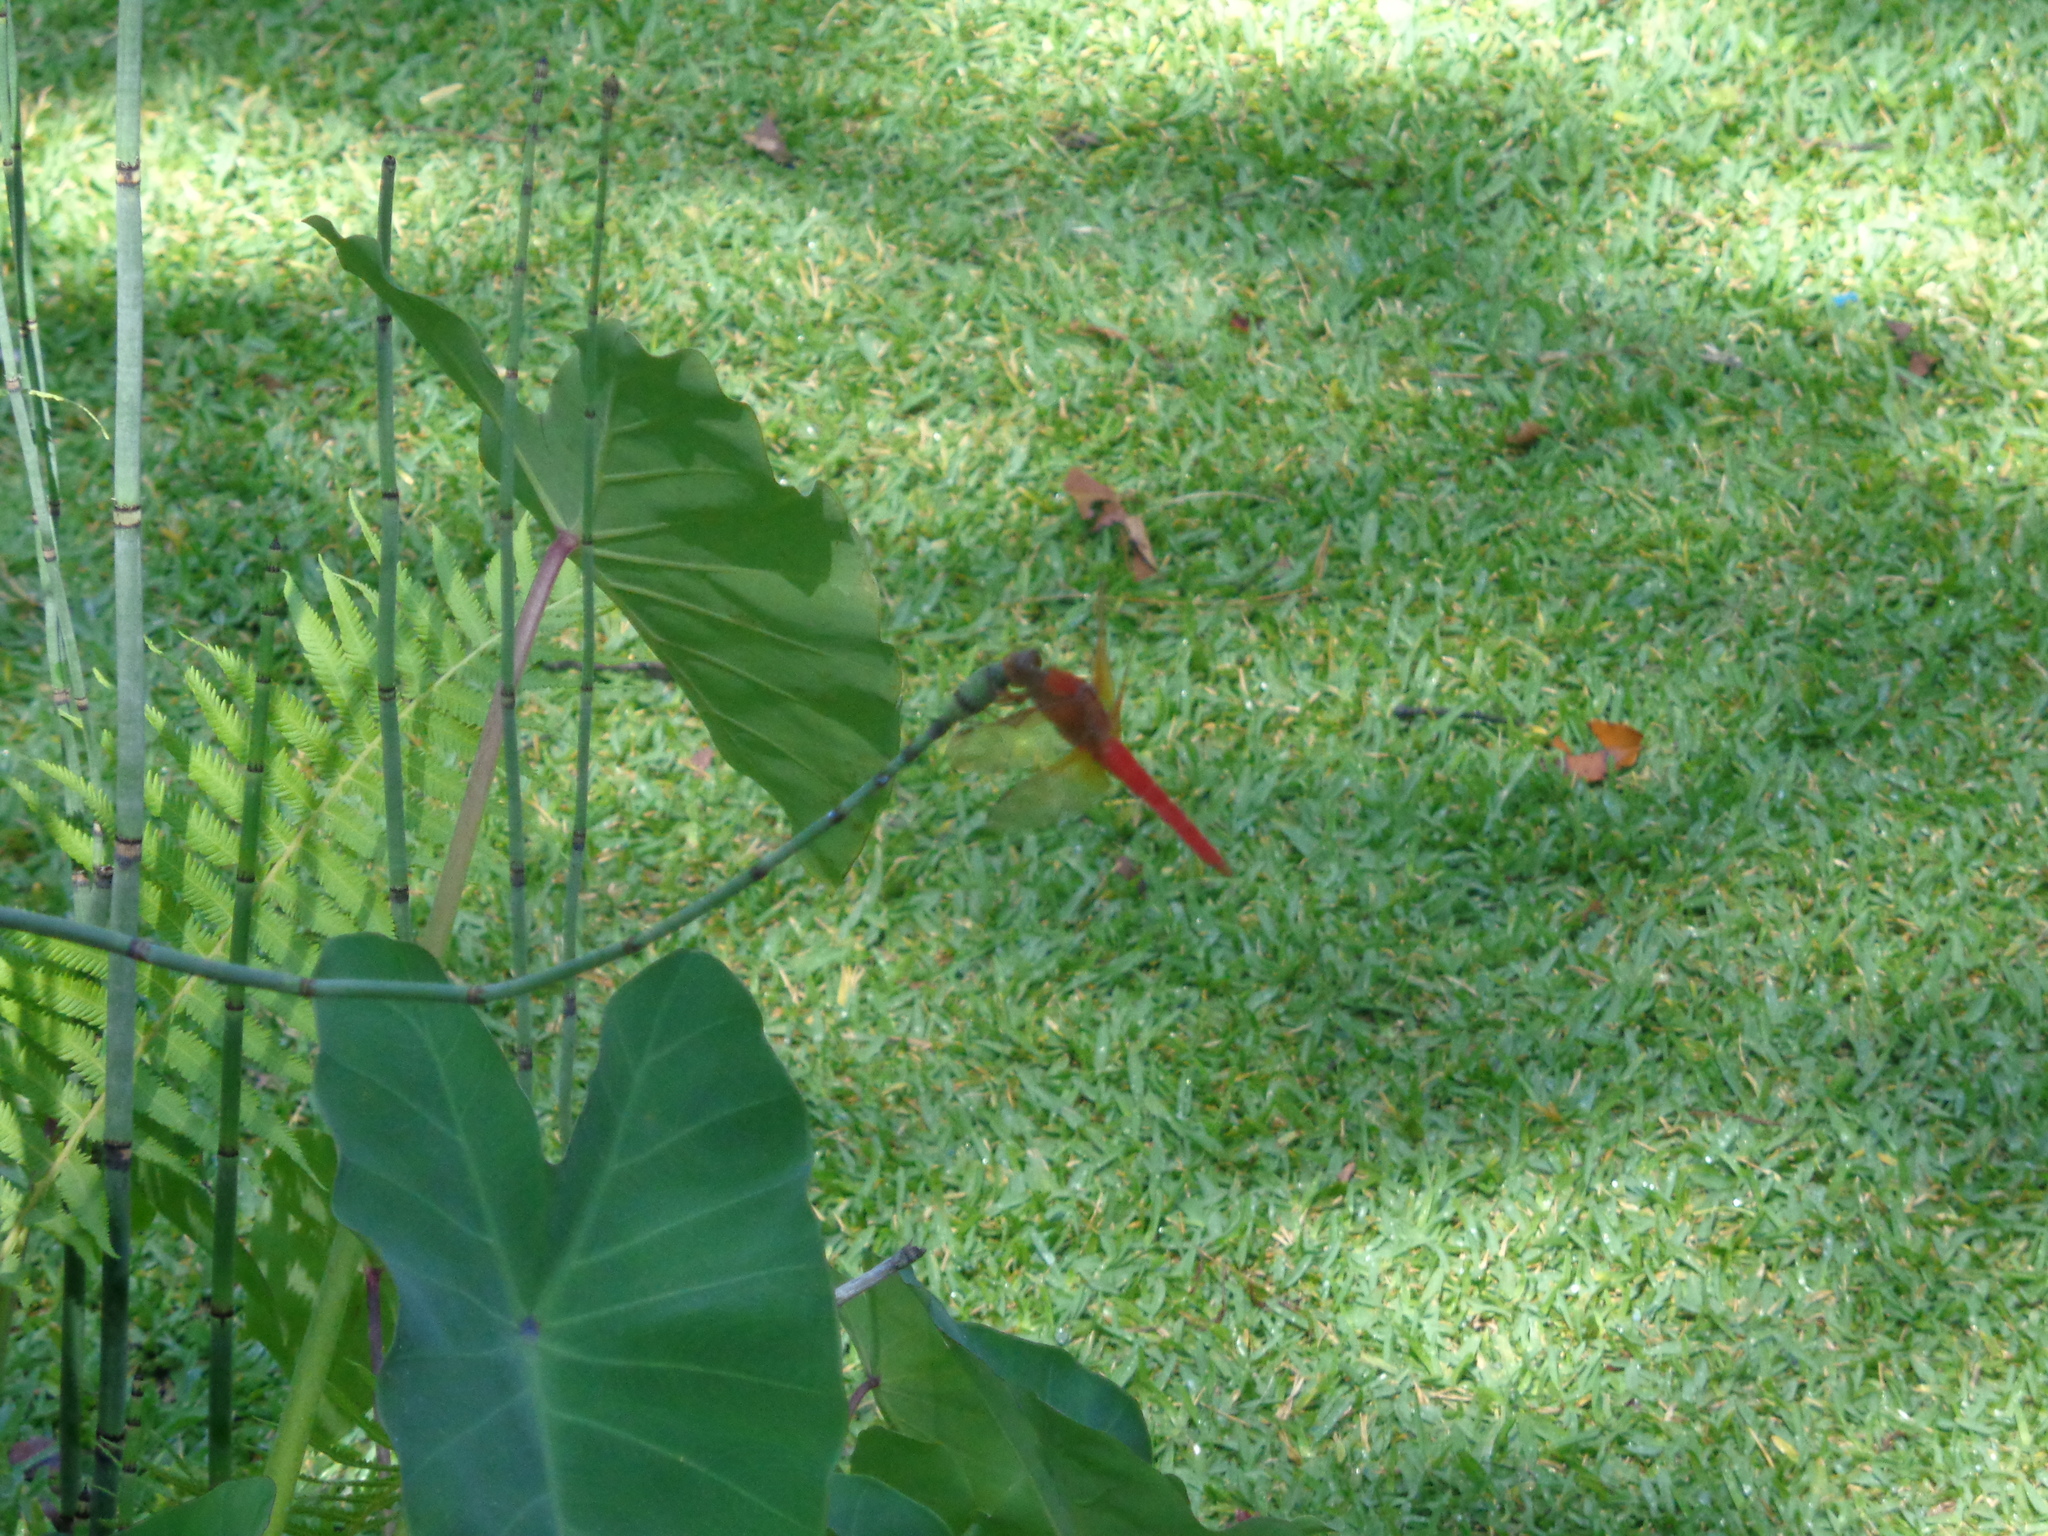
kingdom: Animalia
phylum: Arthropoda
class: Insecta
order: Odonata
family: Libellulidae
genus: Libellula
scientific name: Libellula croceipennis
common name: Neon skimmer
